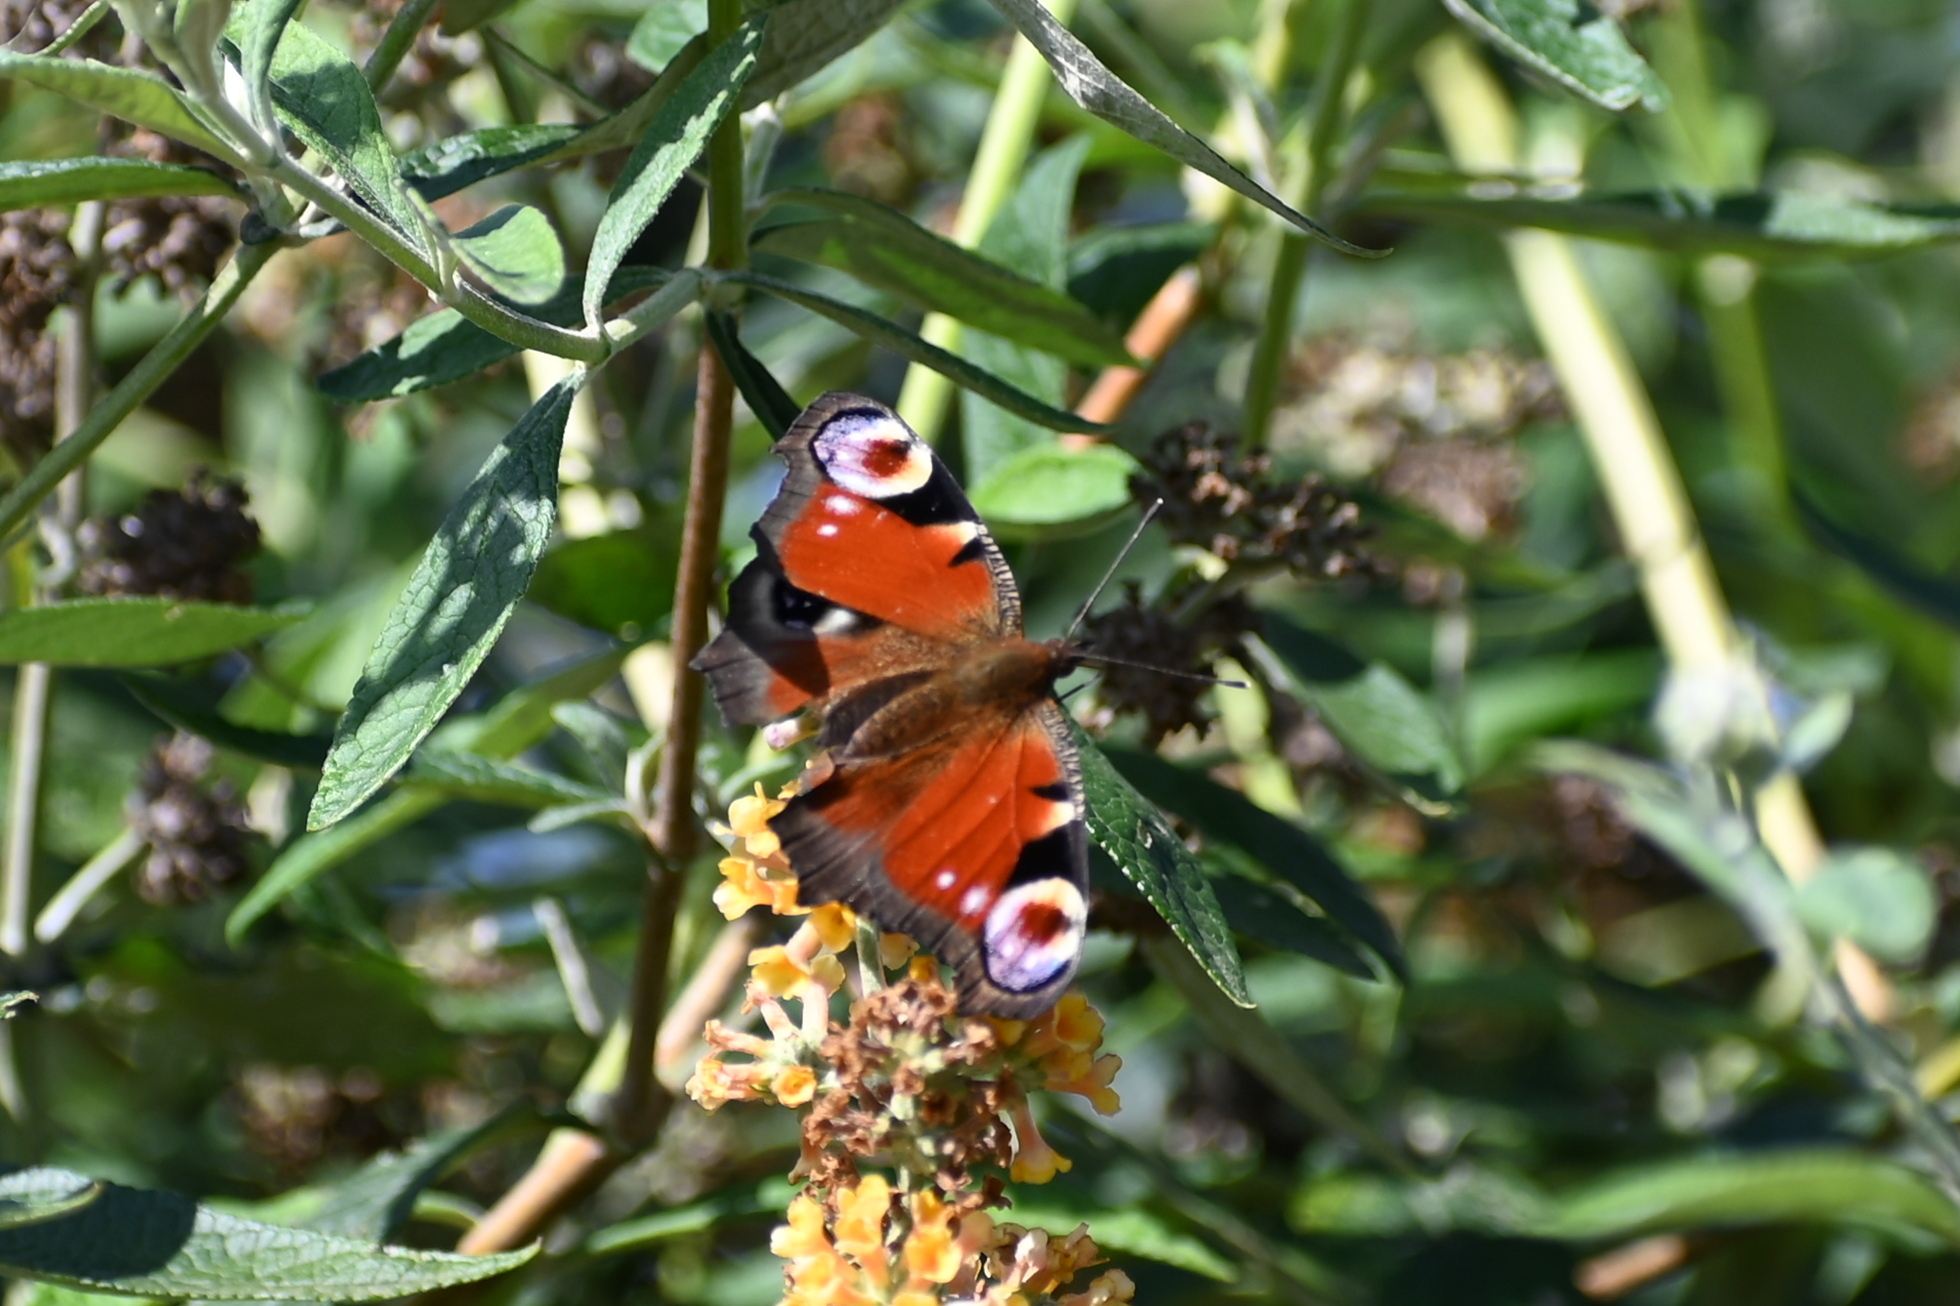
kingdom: Animalia
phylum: Arthropoda
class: Insecta
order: Lepidoptera
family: Nymphalidae
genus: Aglais
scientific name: Aglais io
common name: Peacock
